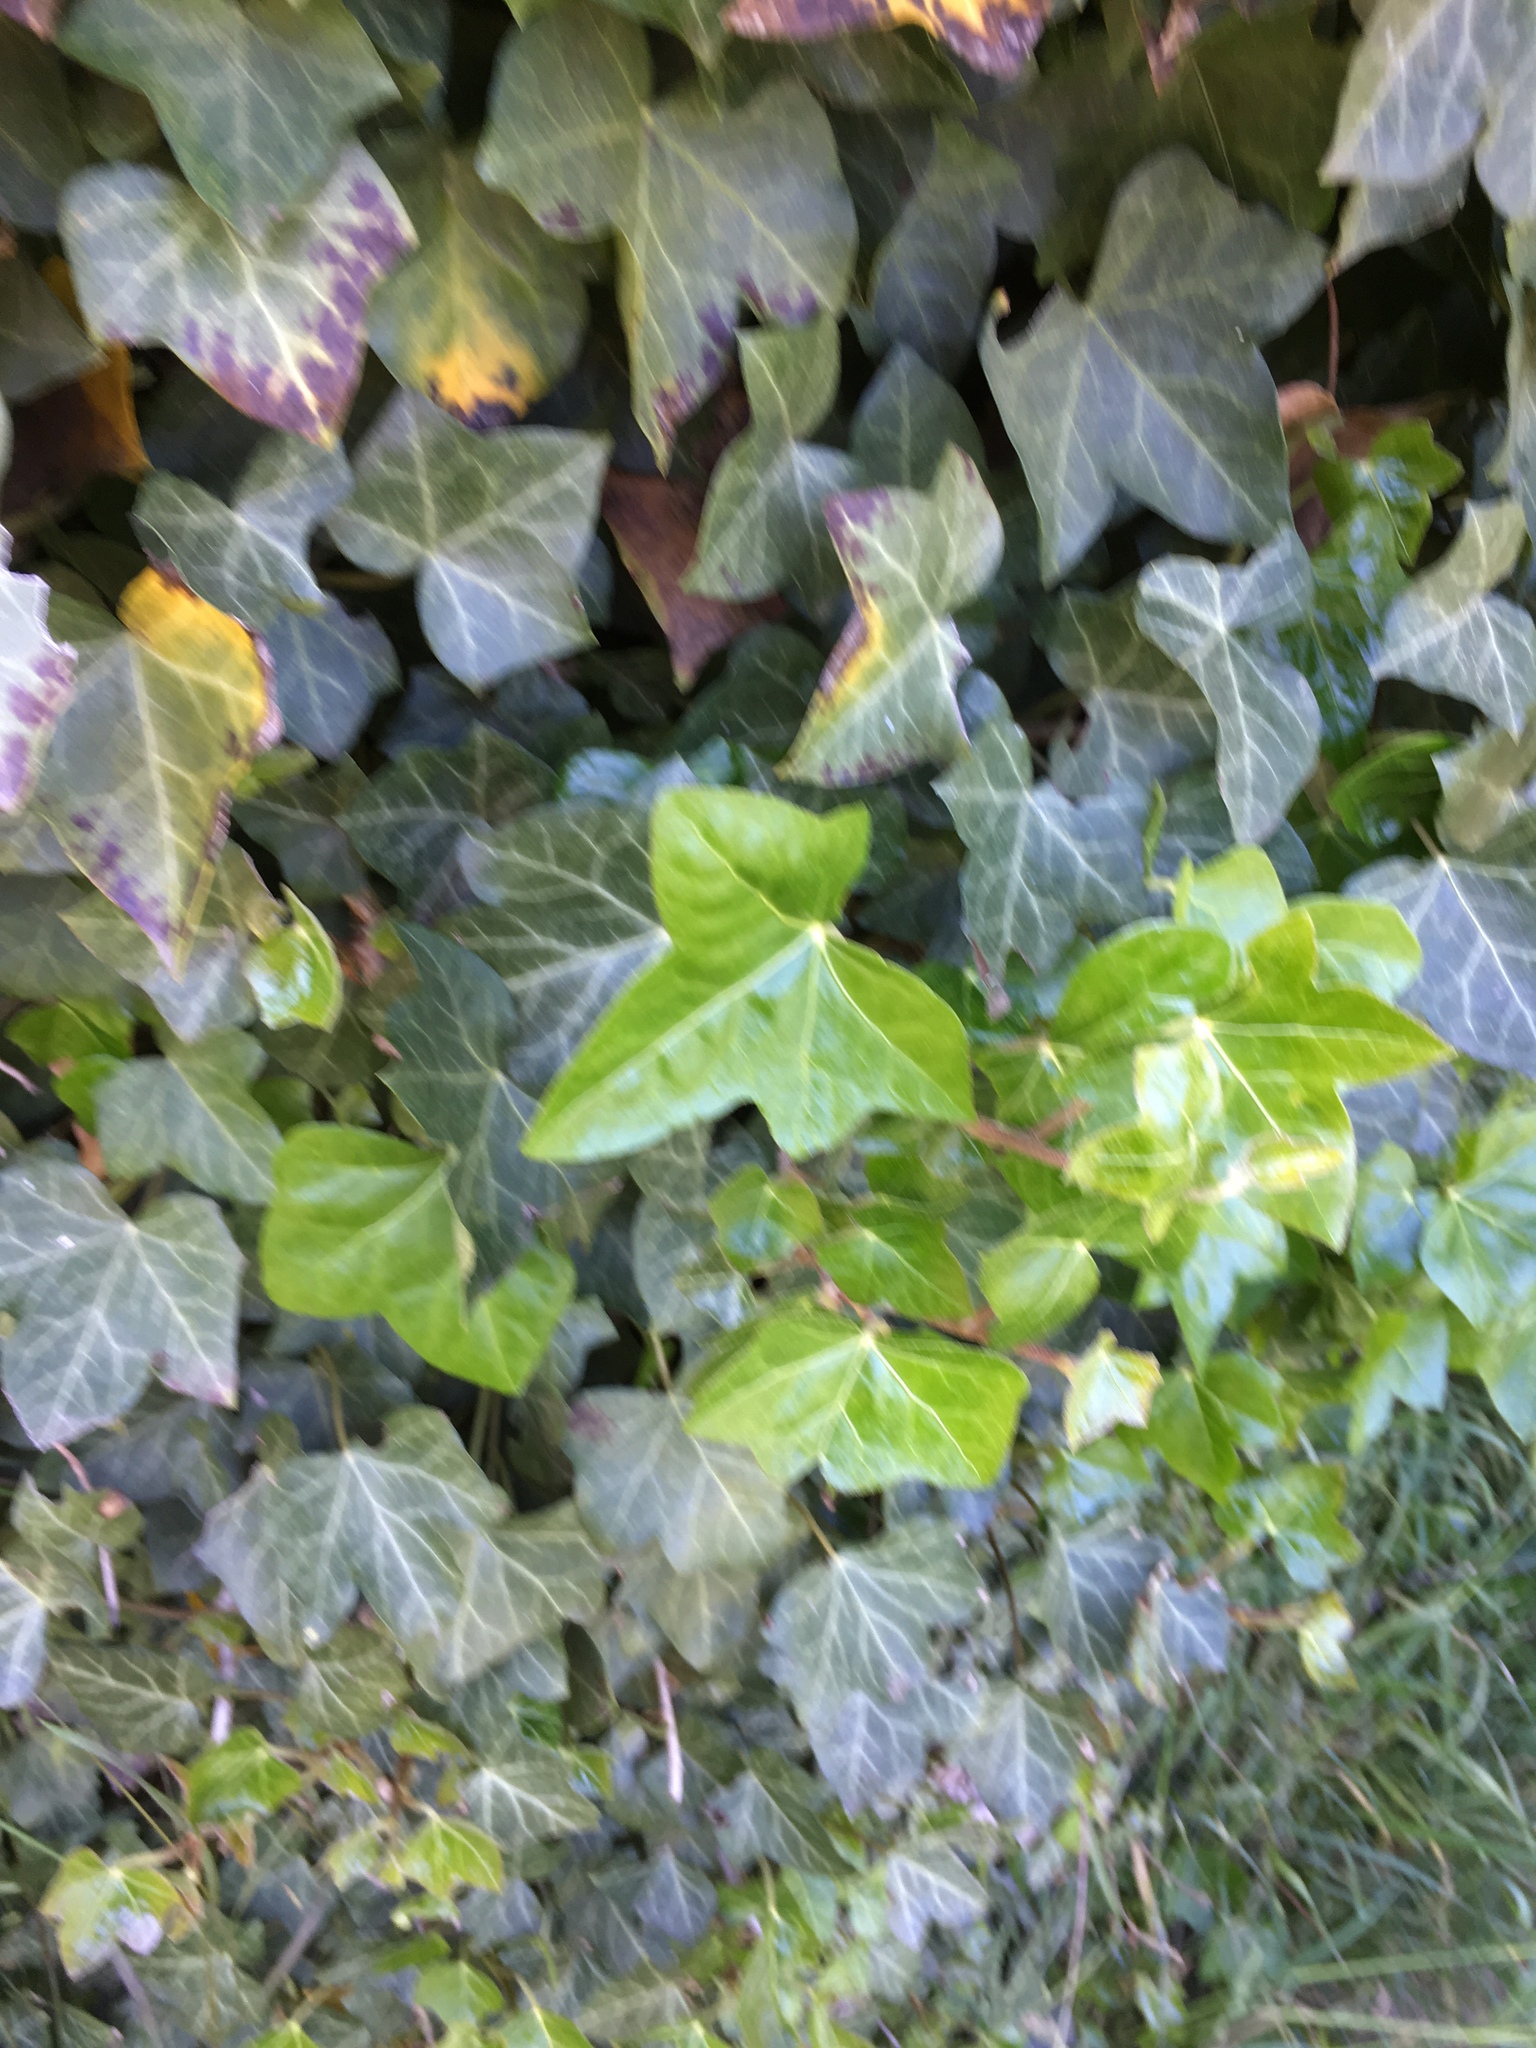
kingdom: Plantae
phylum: Tracheophyta
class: Magnoliopsida
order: Apiales
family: Araliaceae
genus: Hedera
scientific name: Hedera helix
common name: Ivy
